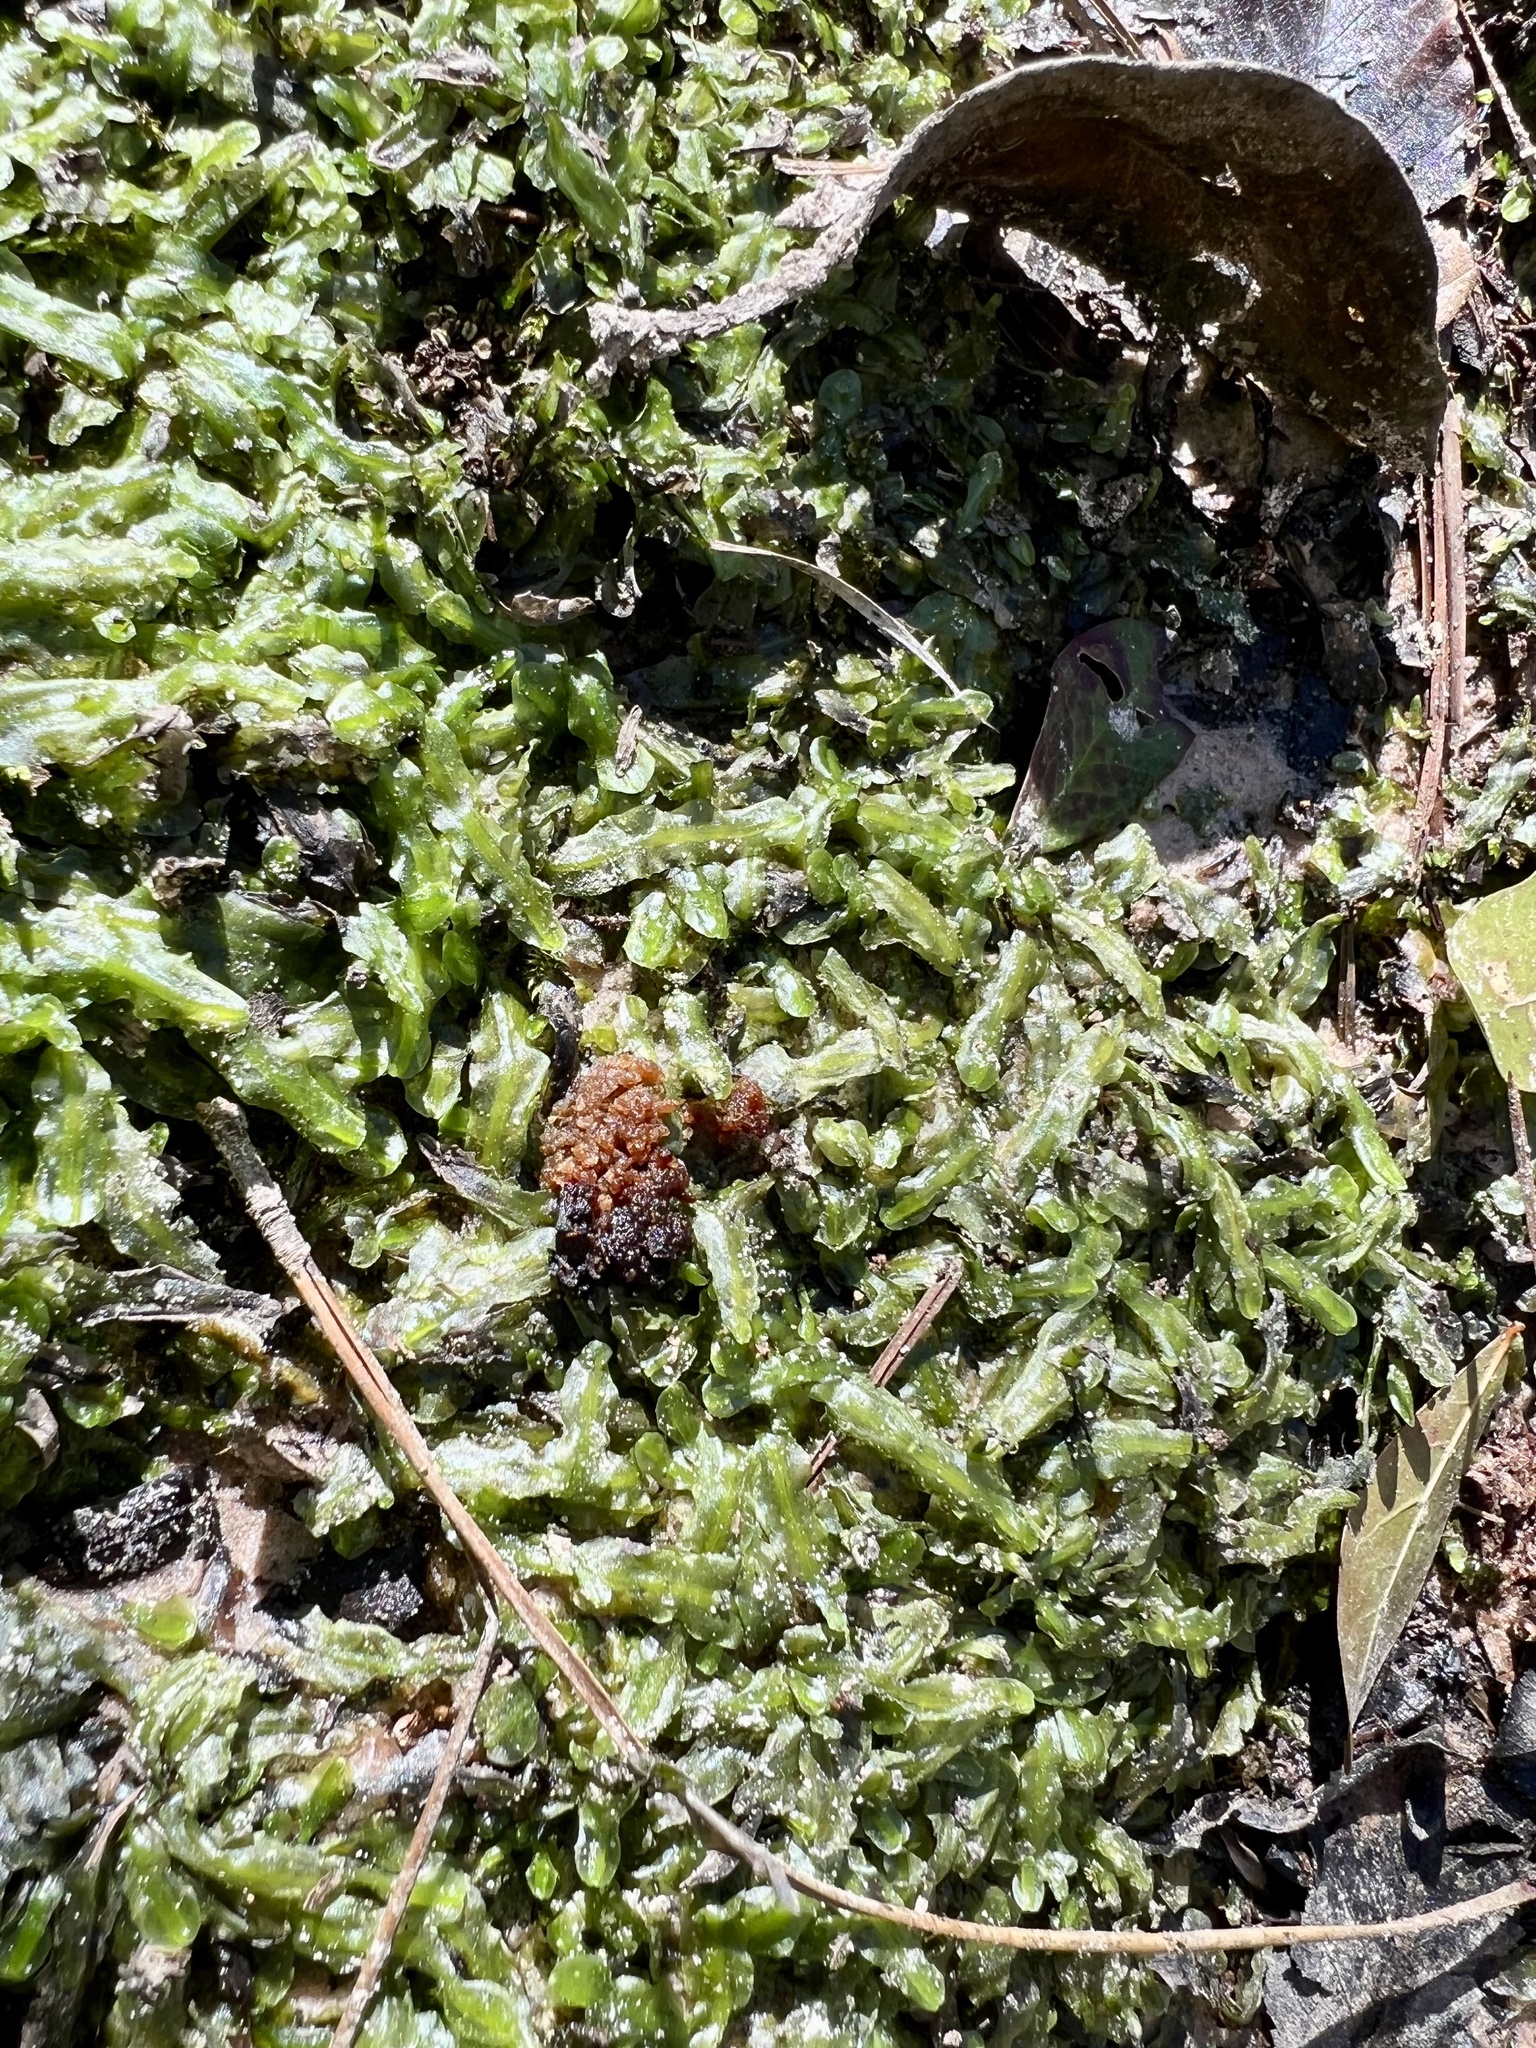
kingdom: Plantae
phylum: Marchantiophyta
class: Jungermanniopsida
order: Pallaviciniales
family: Pallaviciniaceae
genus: Pallavicinia
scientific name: Pallavicinia lyellii
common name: Veilwort
